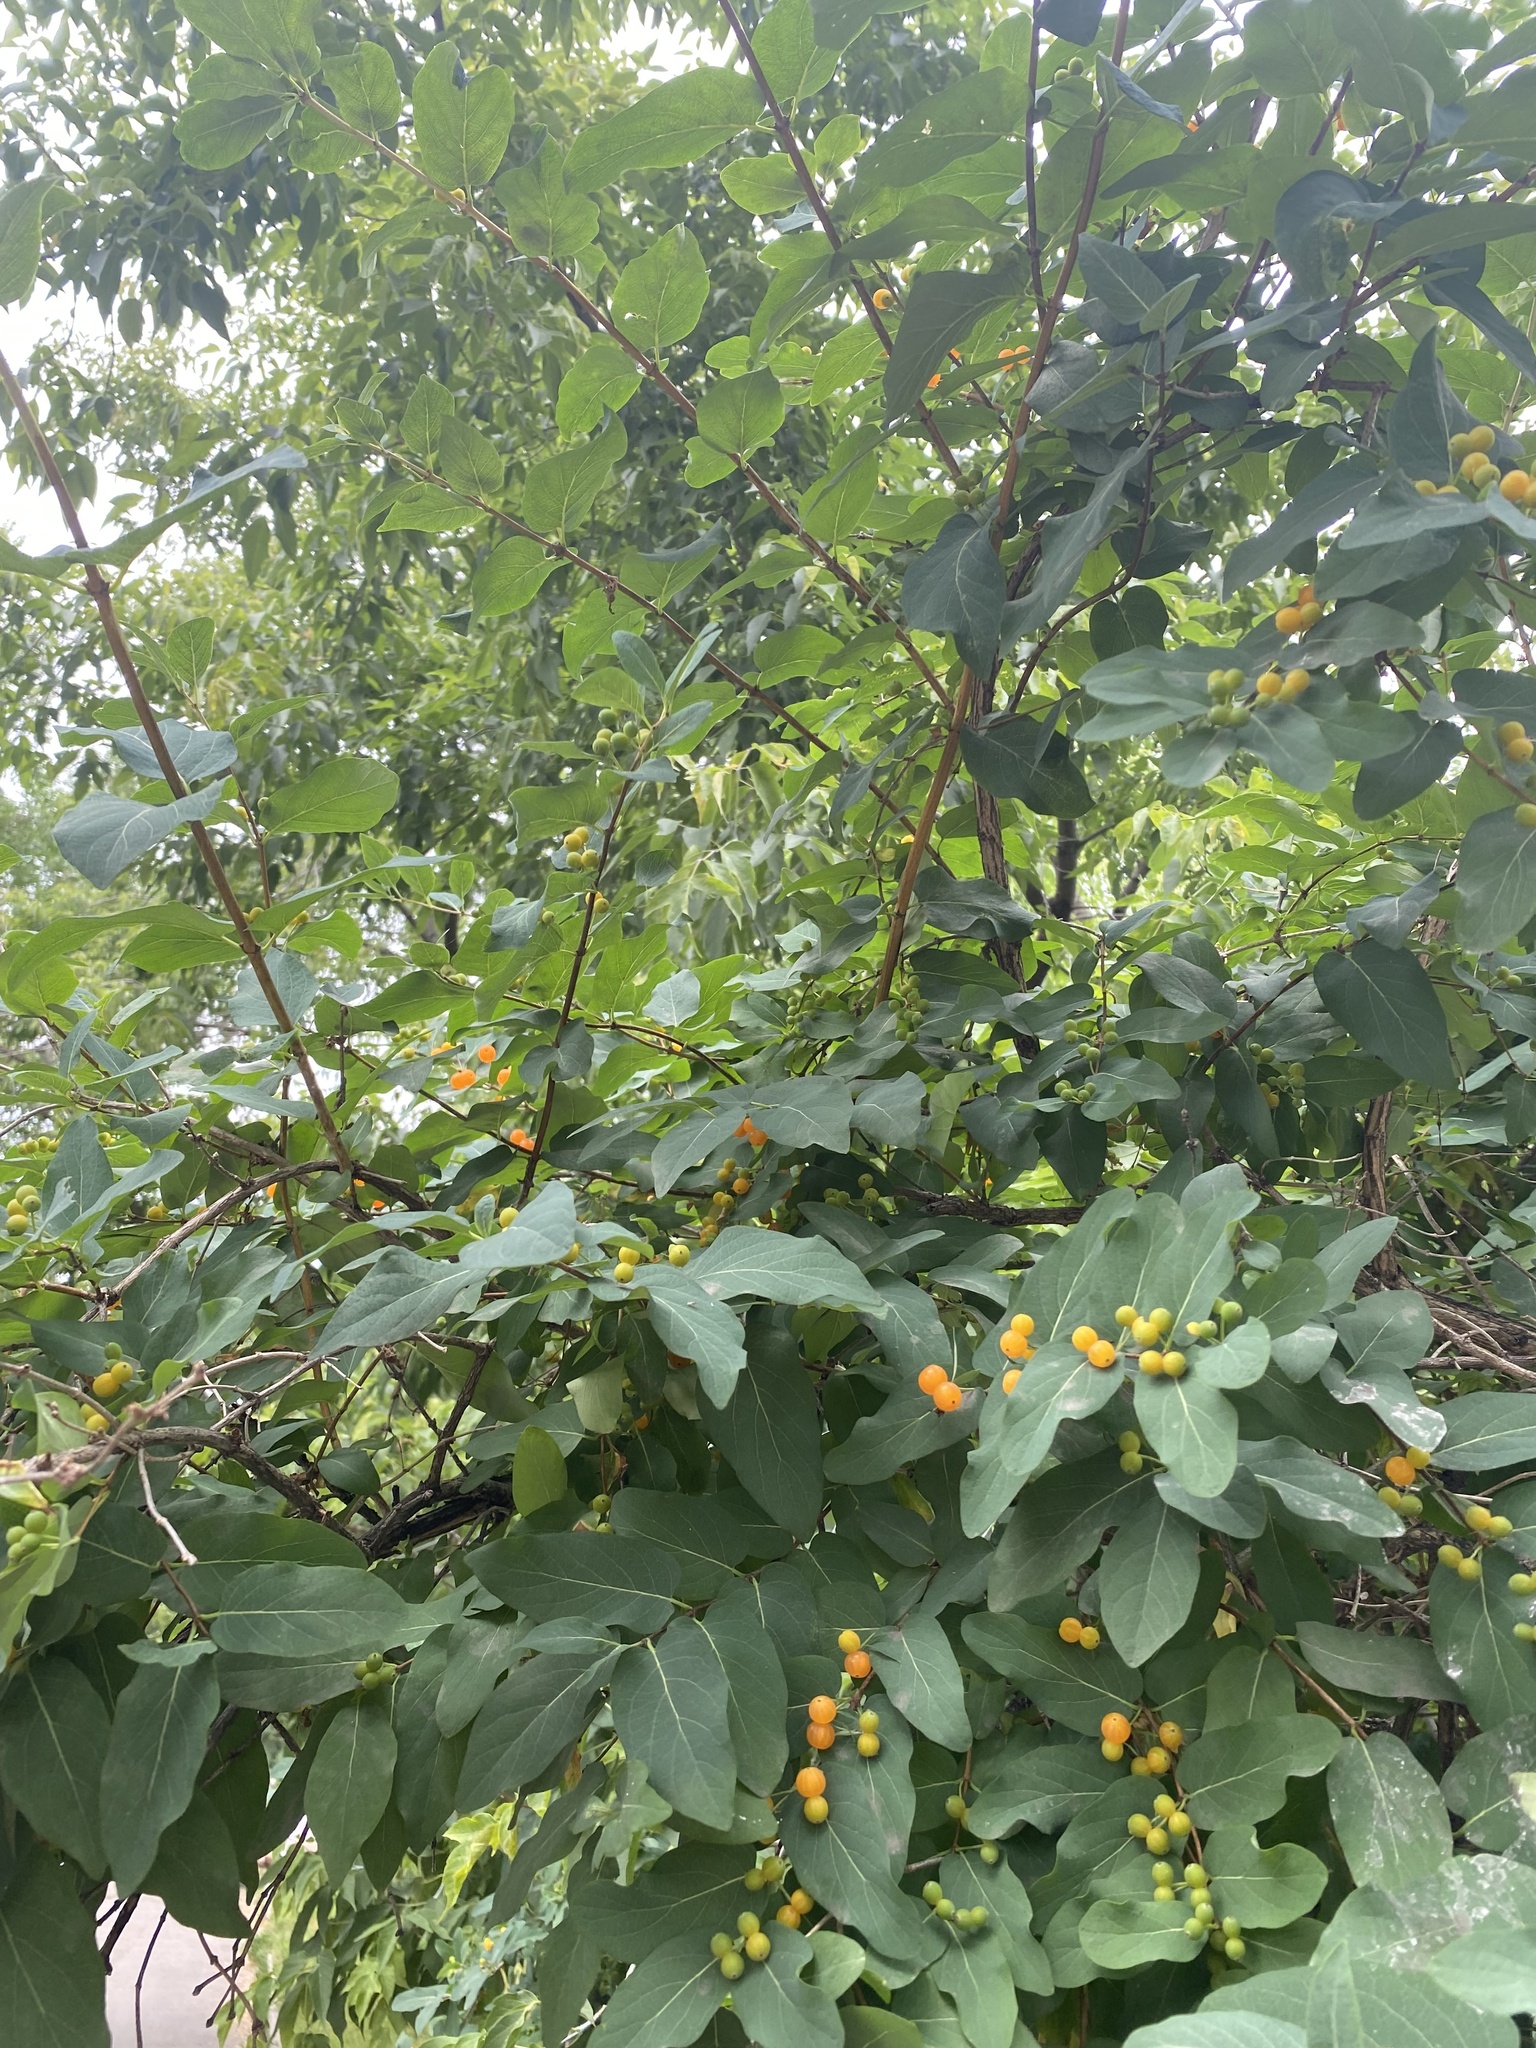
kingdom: Plantae
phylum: Tracheophyta
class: Magnoliopsida
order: Dipsacales
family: Caprifoliaceae
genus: Lonicera
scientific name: Lonicera tatarica
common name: Tatarian honeysuckle
